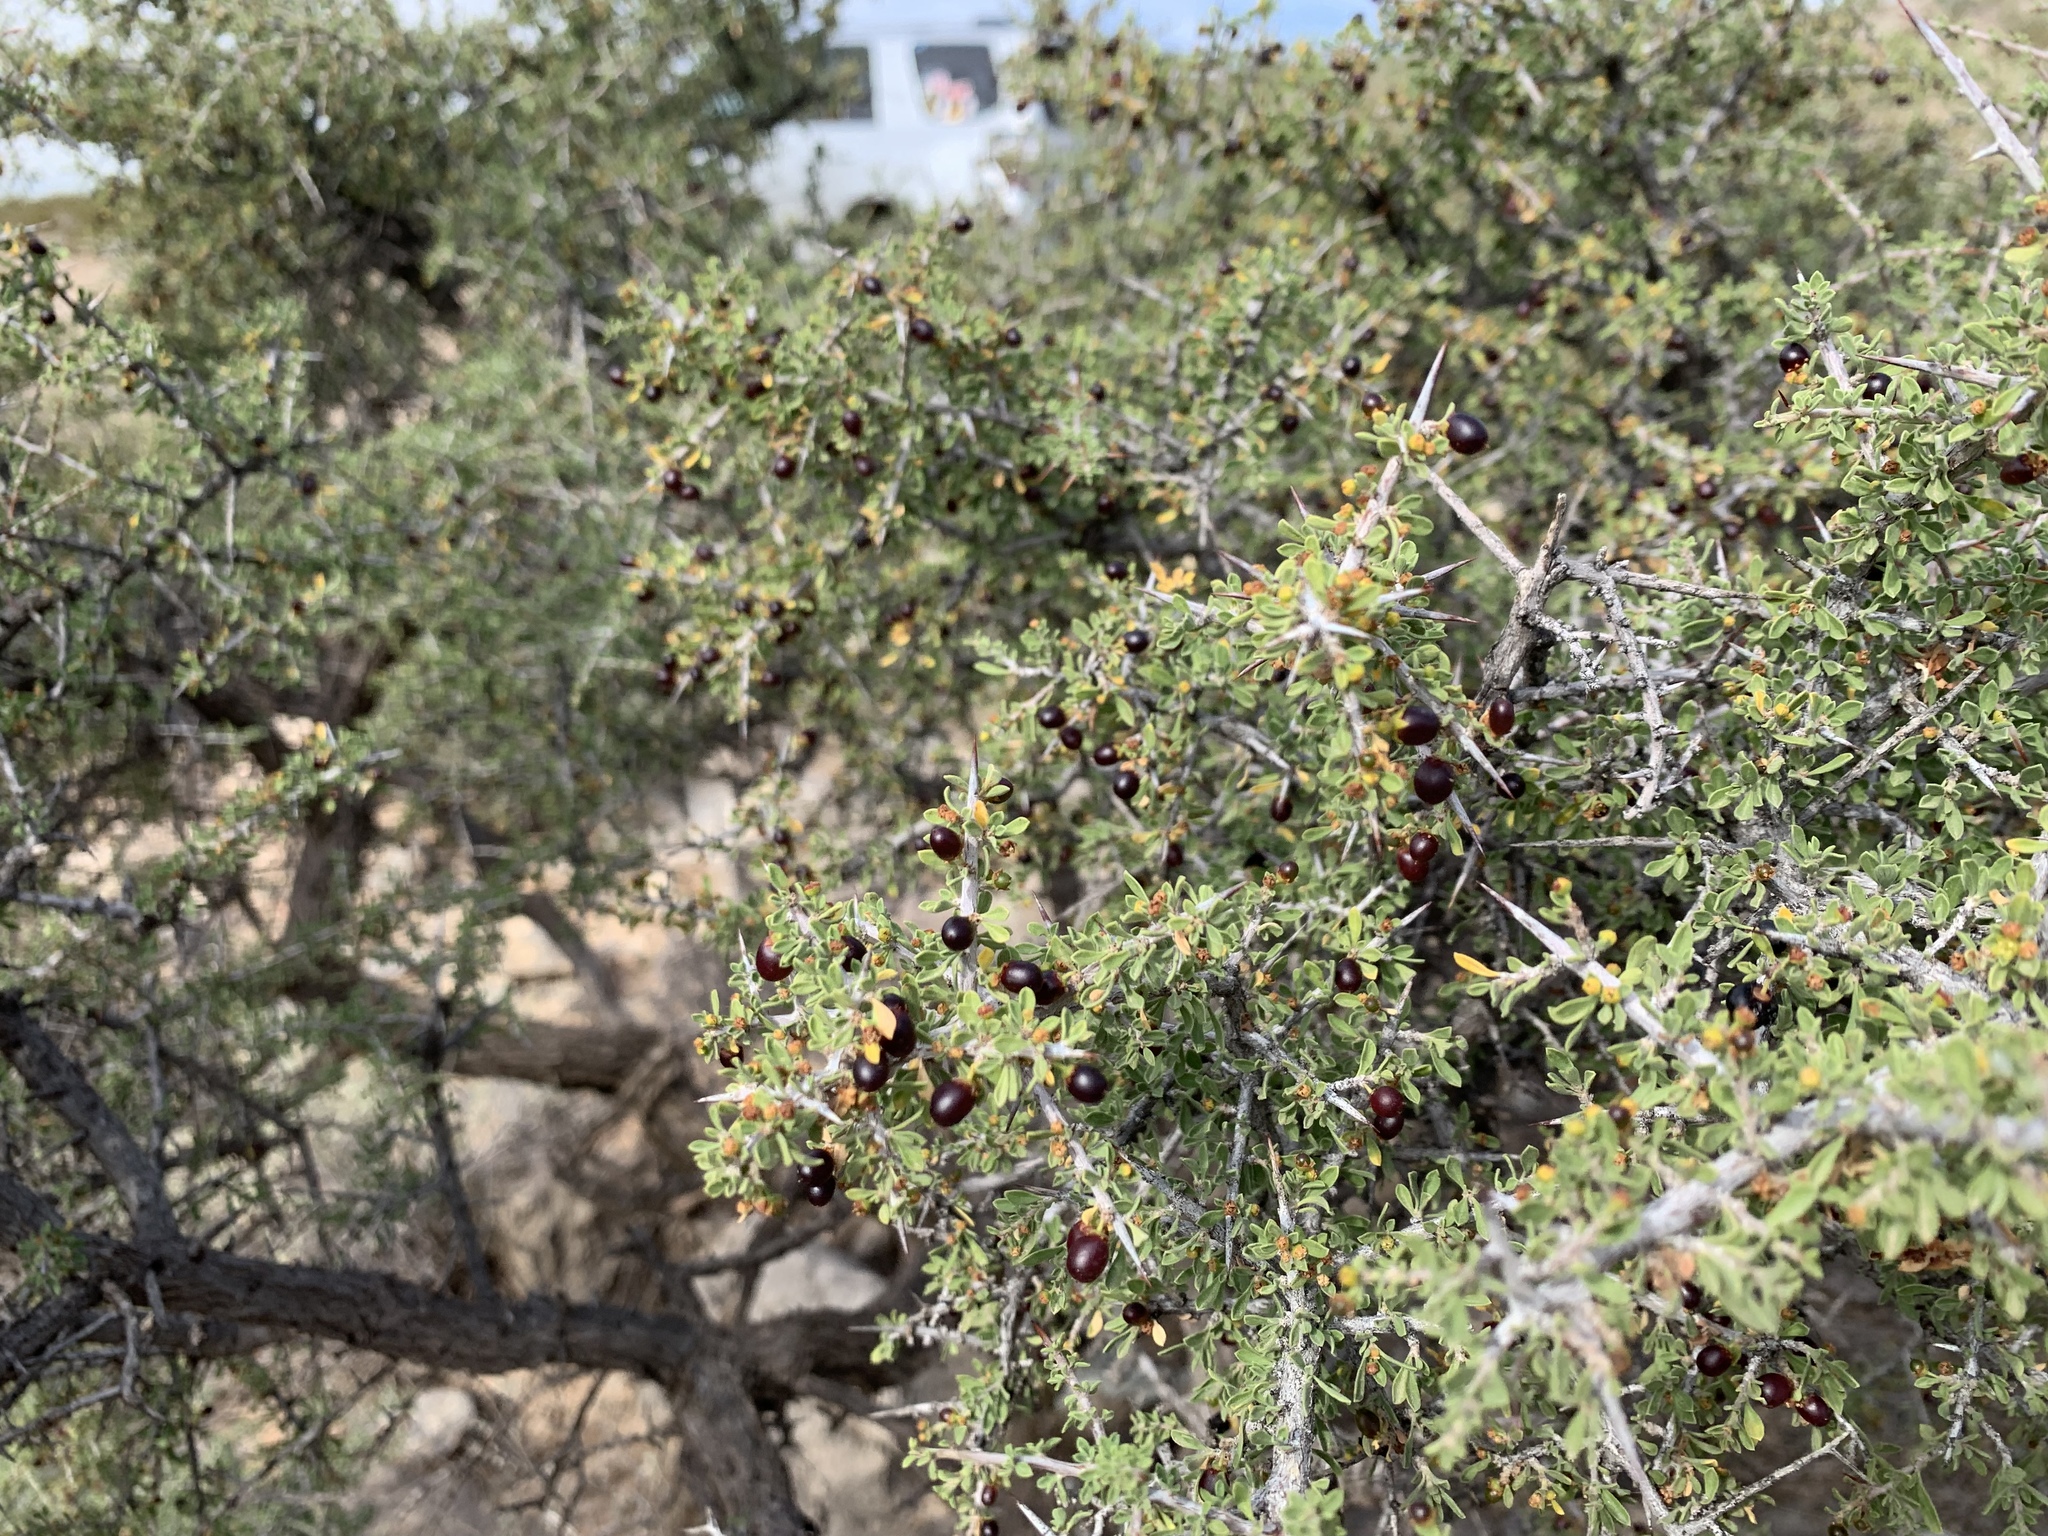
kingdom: Plantae
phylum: Tracheophyta
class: Magnoliopsida
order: Rosales
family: Rhamnaceae
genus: Condalia
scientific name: Condalia warnockii
